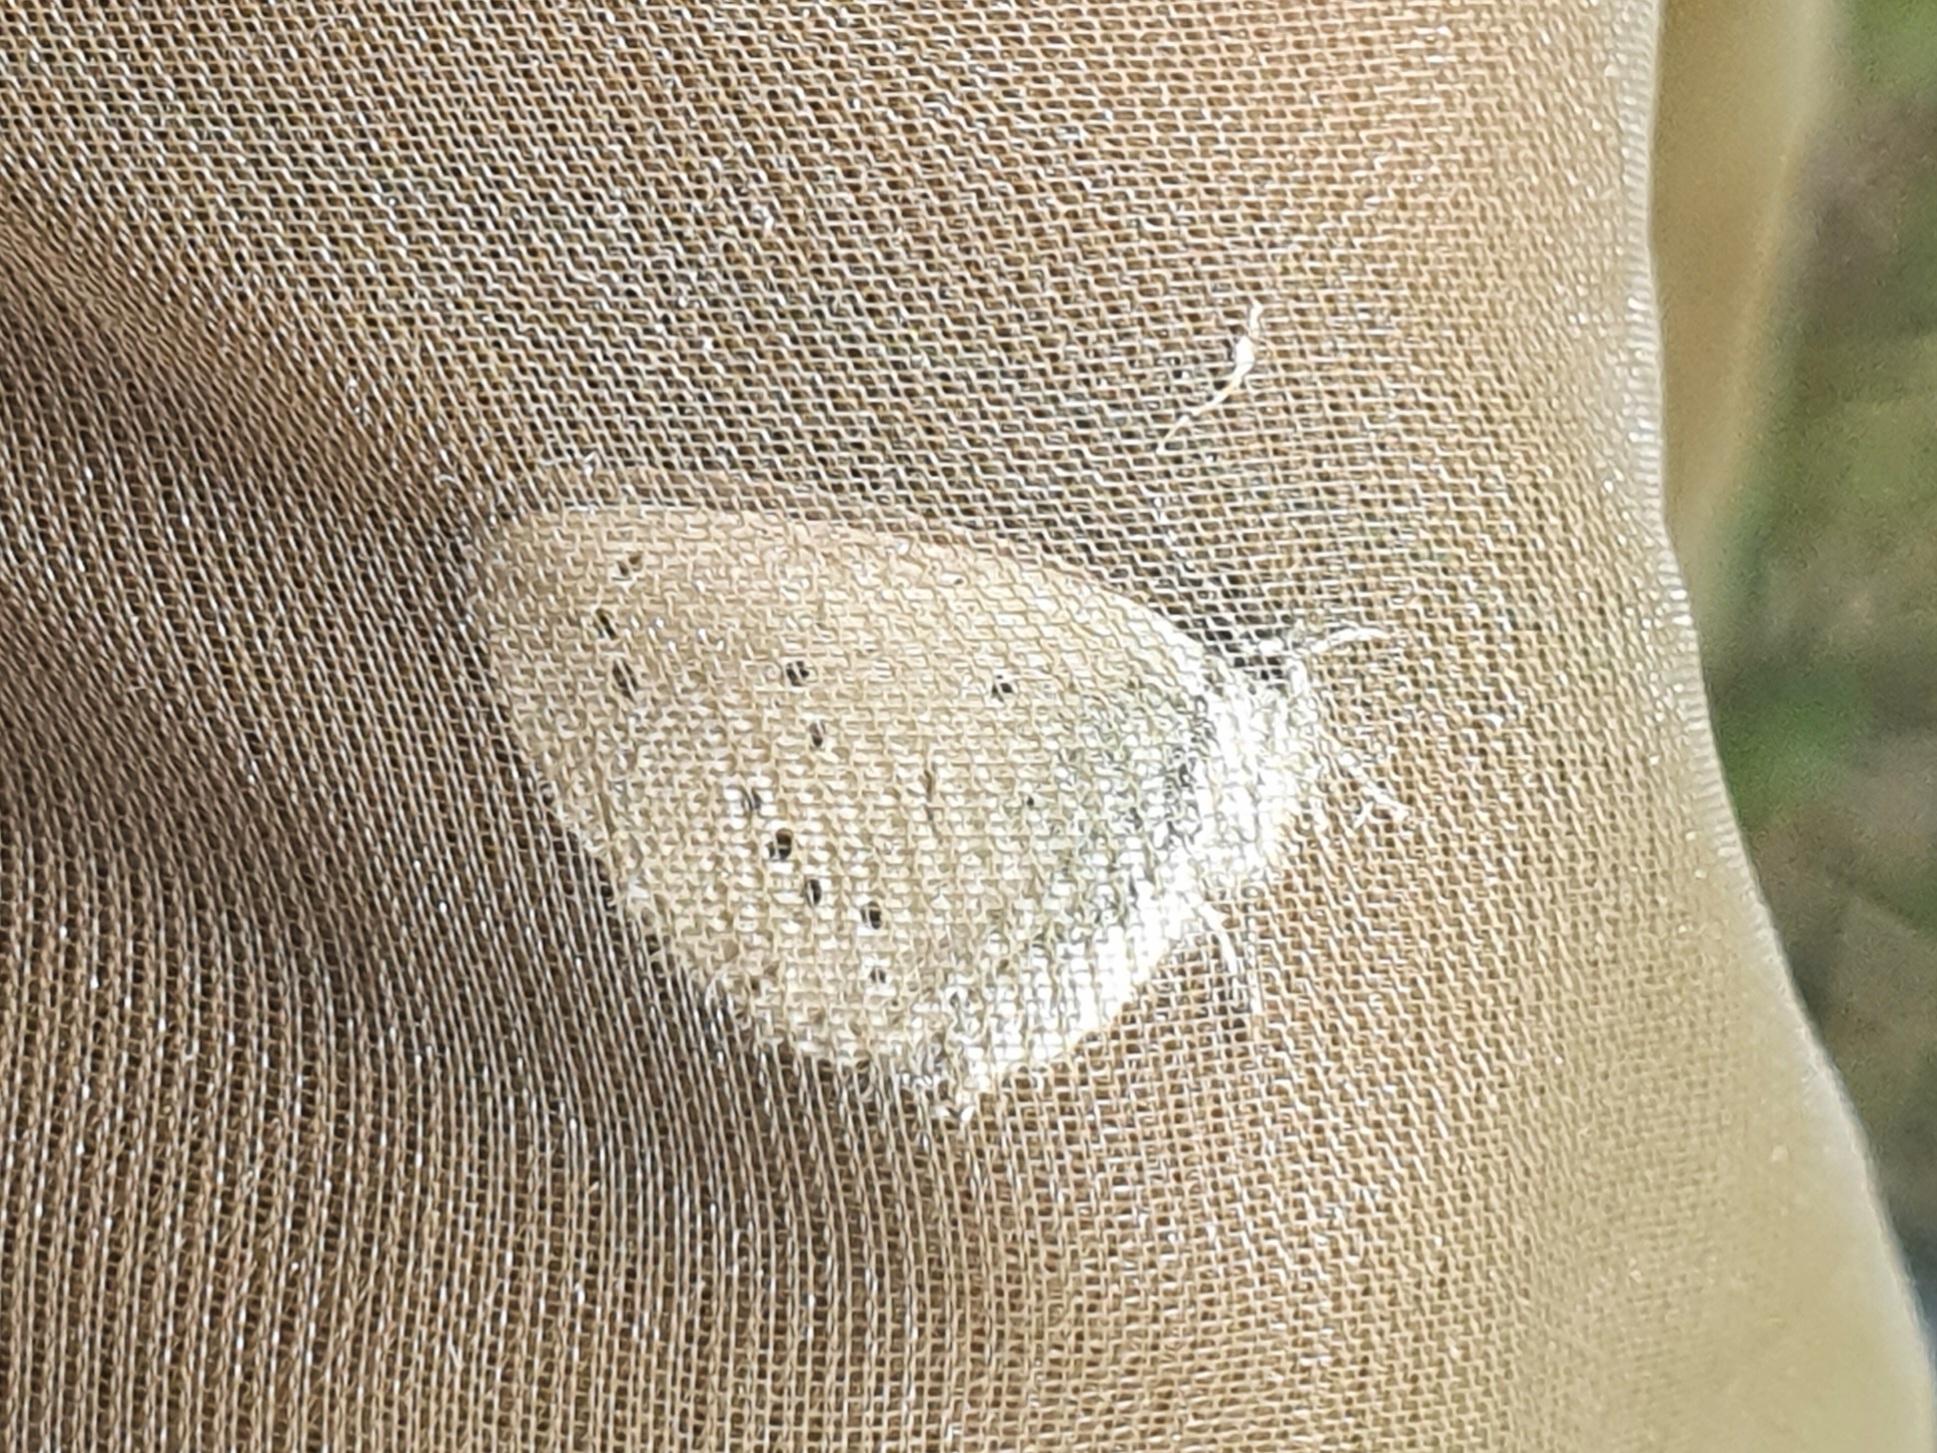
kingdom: Animalia
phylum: Arthropoda
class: Insecta
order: Lepidoptera
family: Lycaenidae
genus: Cupido
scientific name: Cupido minimus
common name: Small blue
